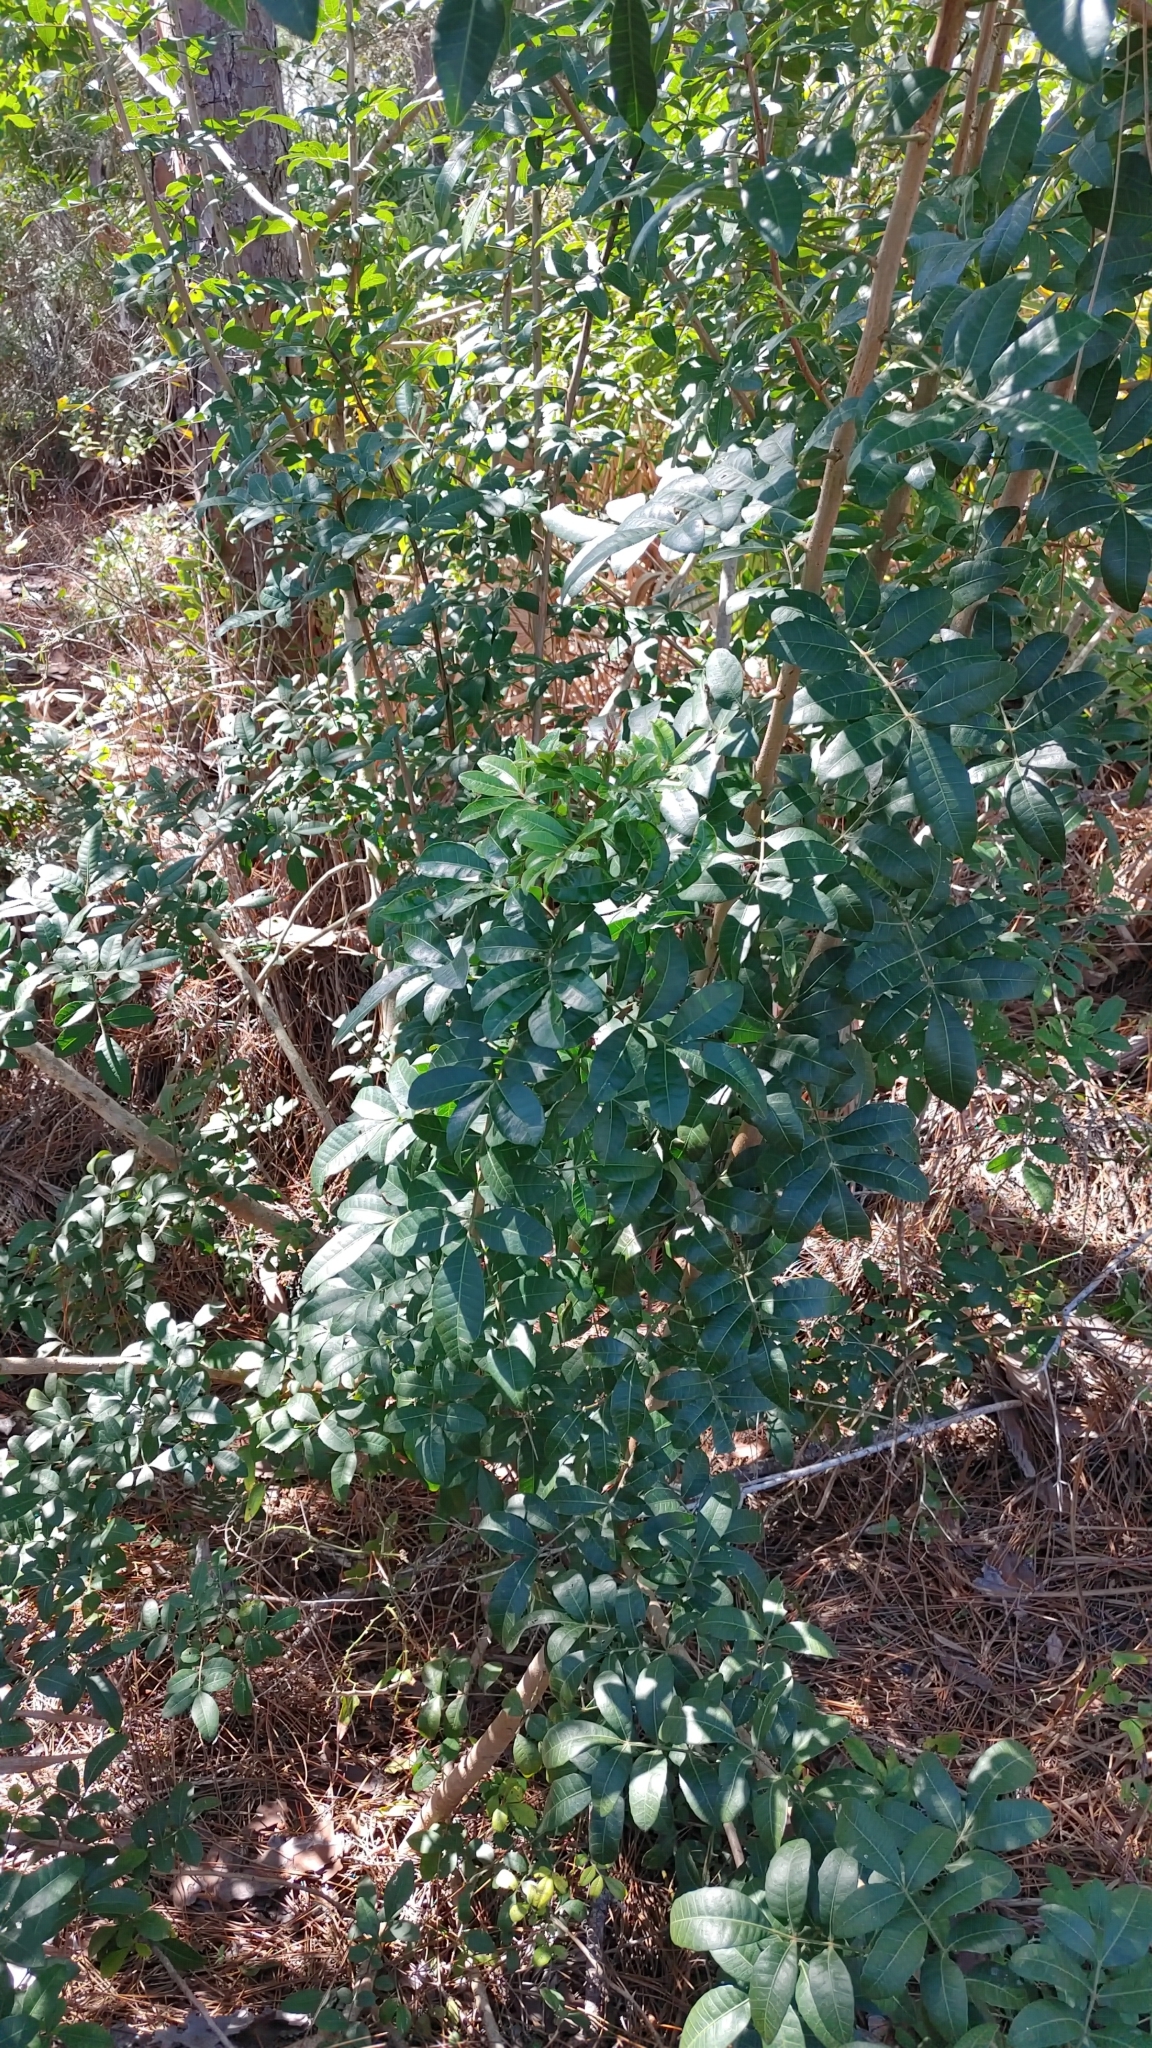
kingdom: Plantae
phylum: Tracheophyta
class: Magnoliopsida
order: Sapindales
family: Anacardiaceae
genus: Schinus
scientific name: Schinus terebinthifolia
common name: Brazilian peppertree
